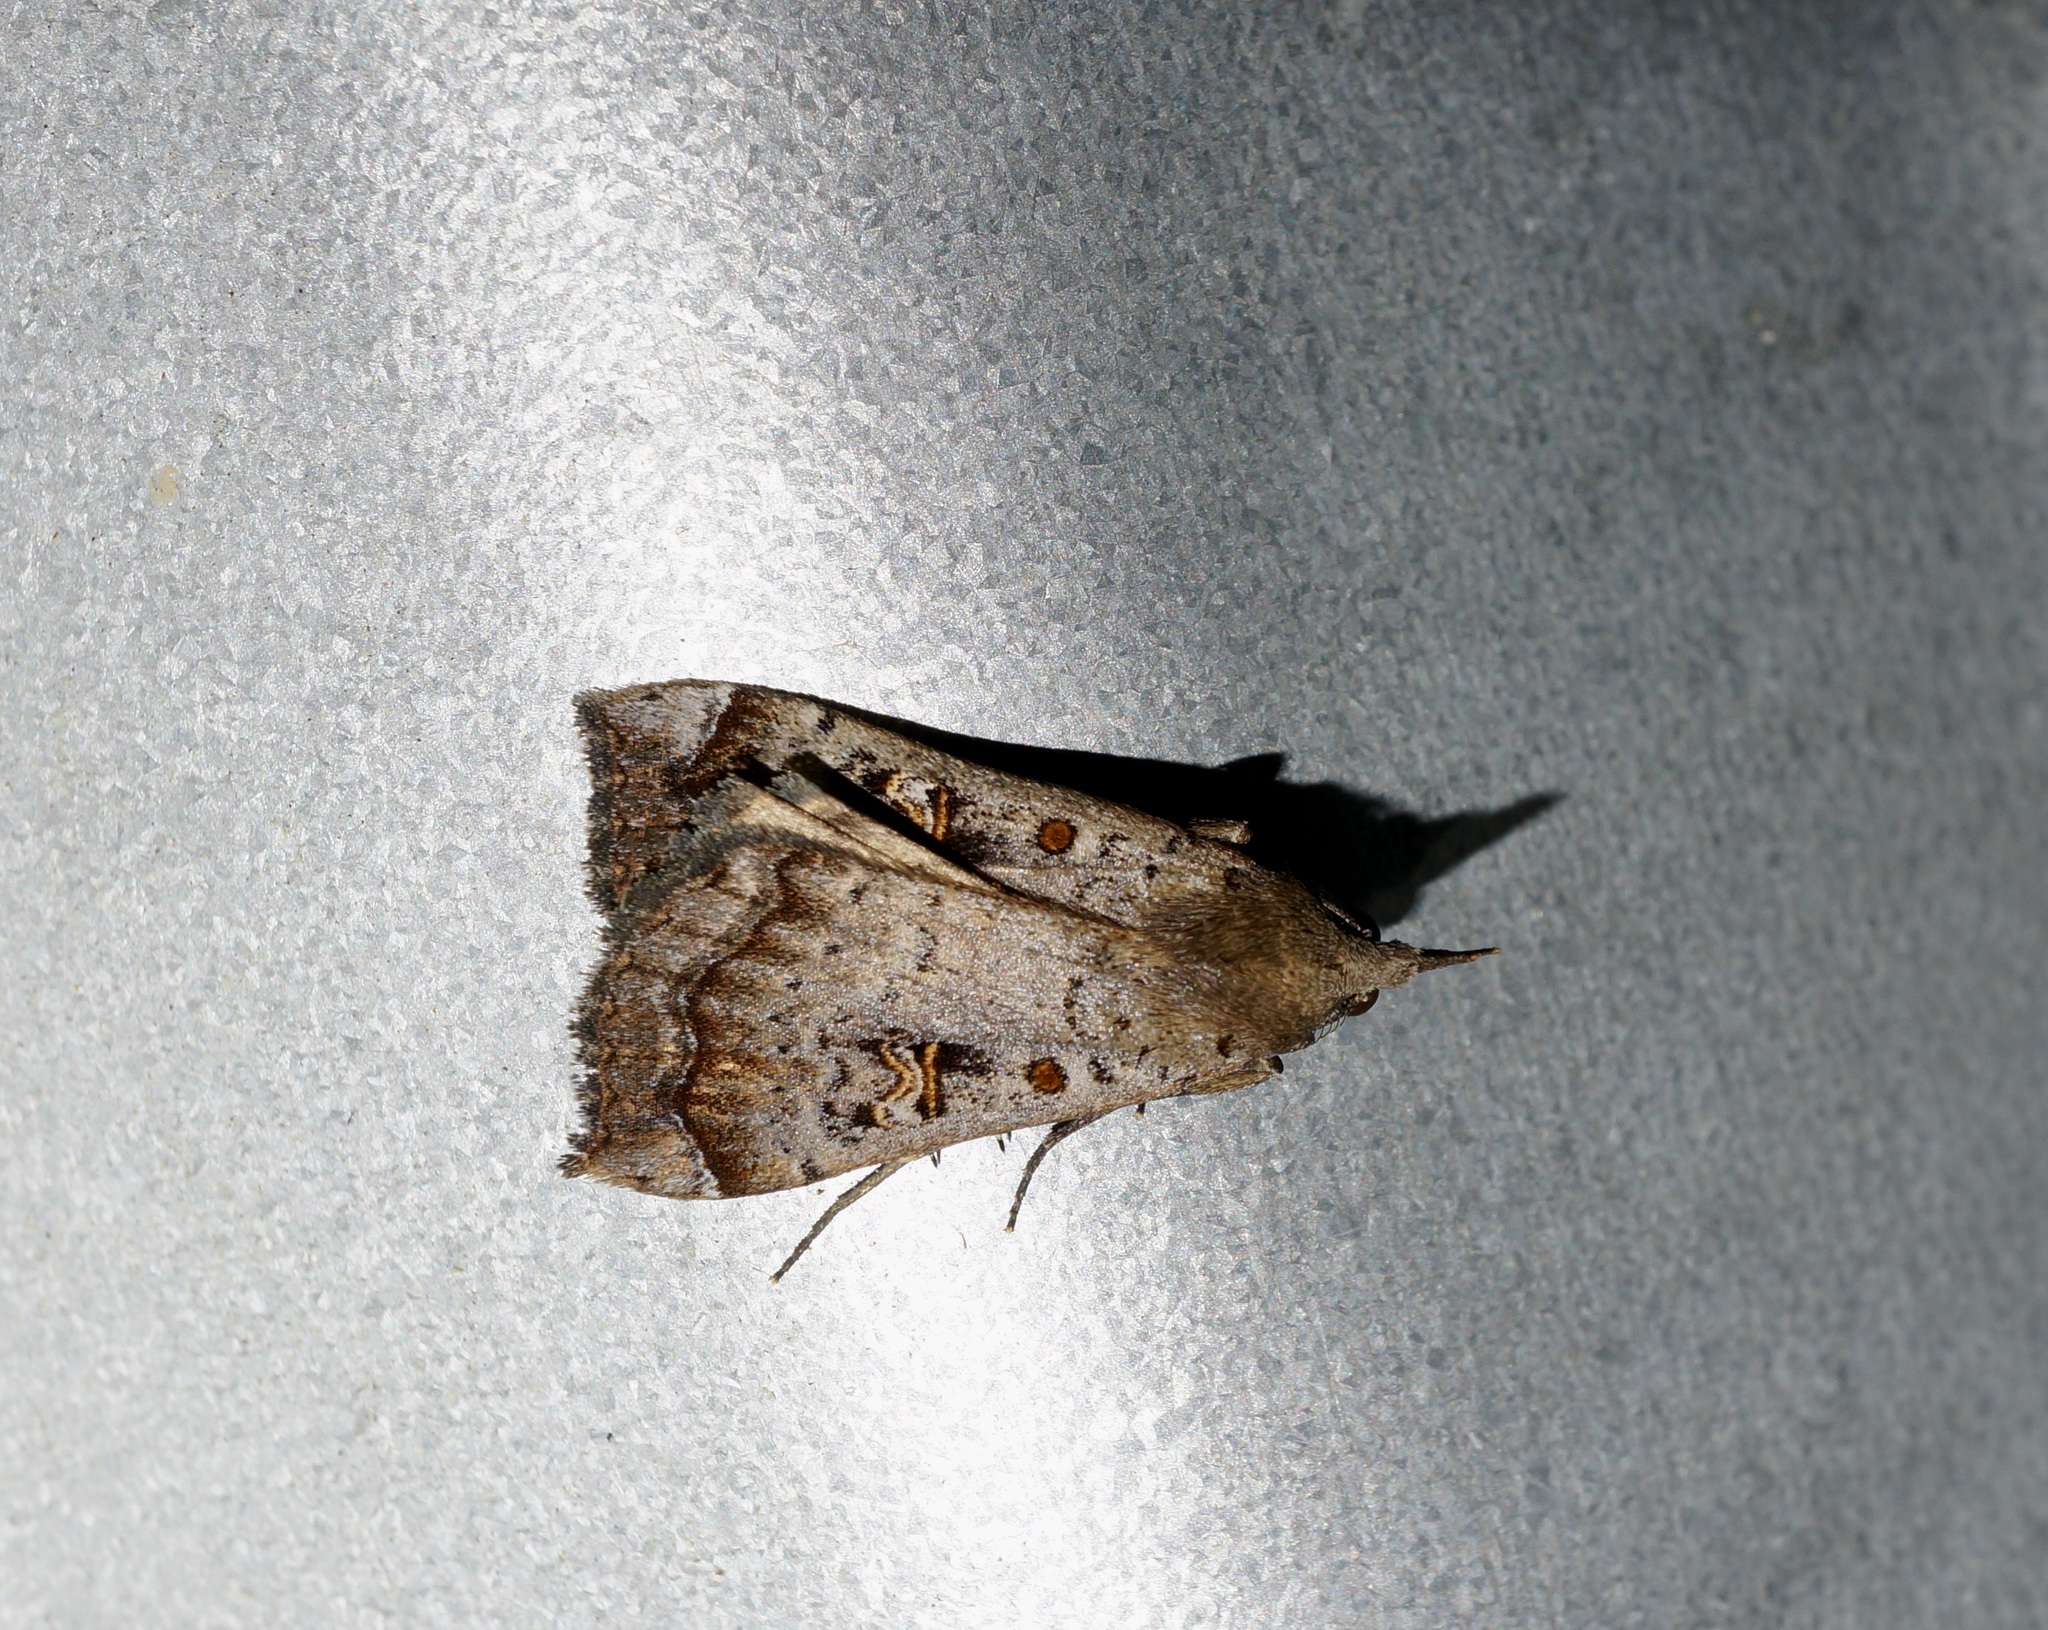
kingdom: Animalia
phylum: Arthropoda
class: Insecta
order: Lepidoptera
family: Erebidae
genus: Rhapsa
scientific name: Rhapsa scotosialis
